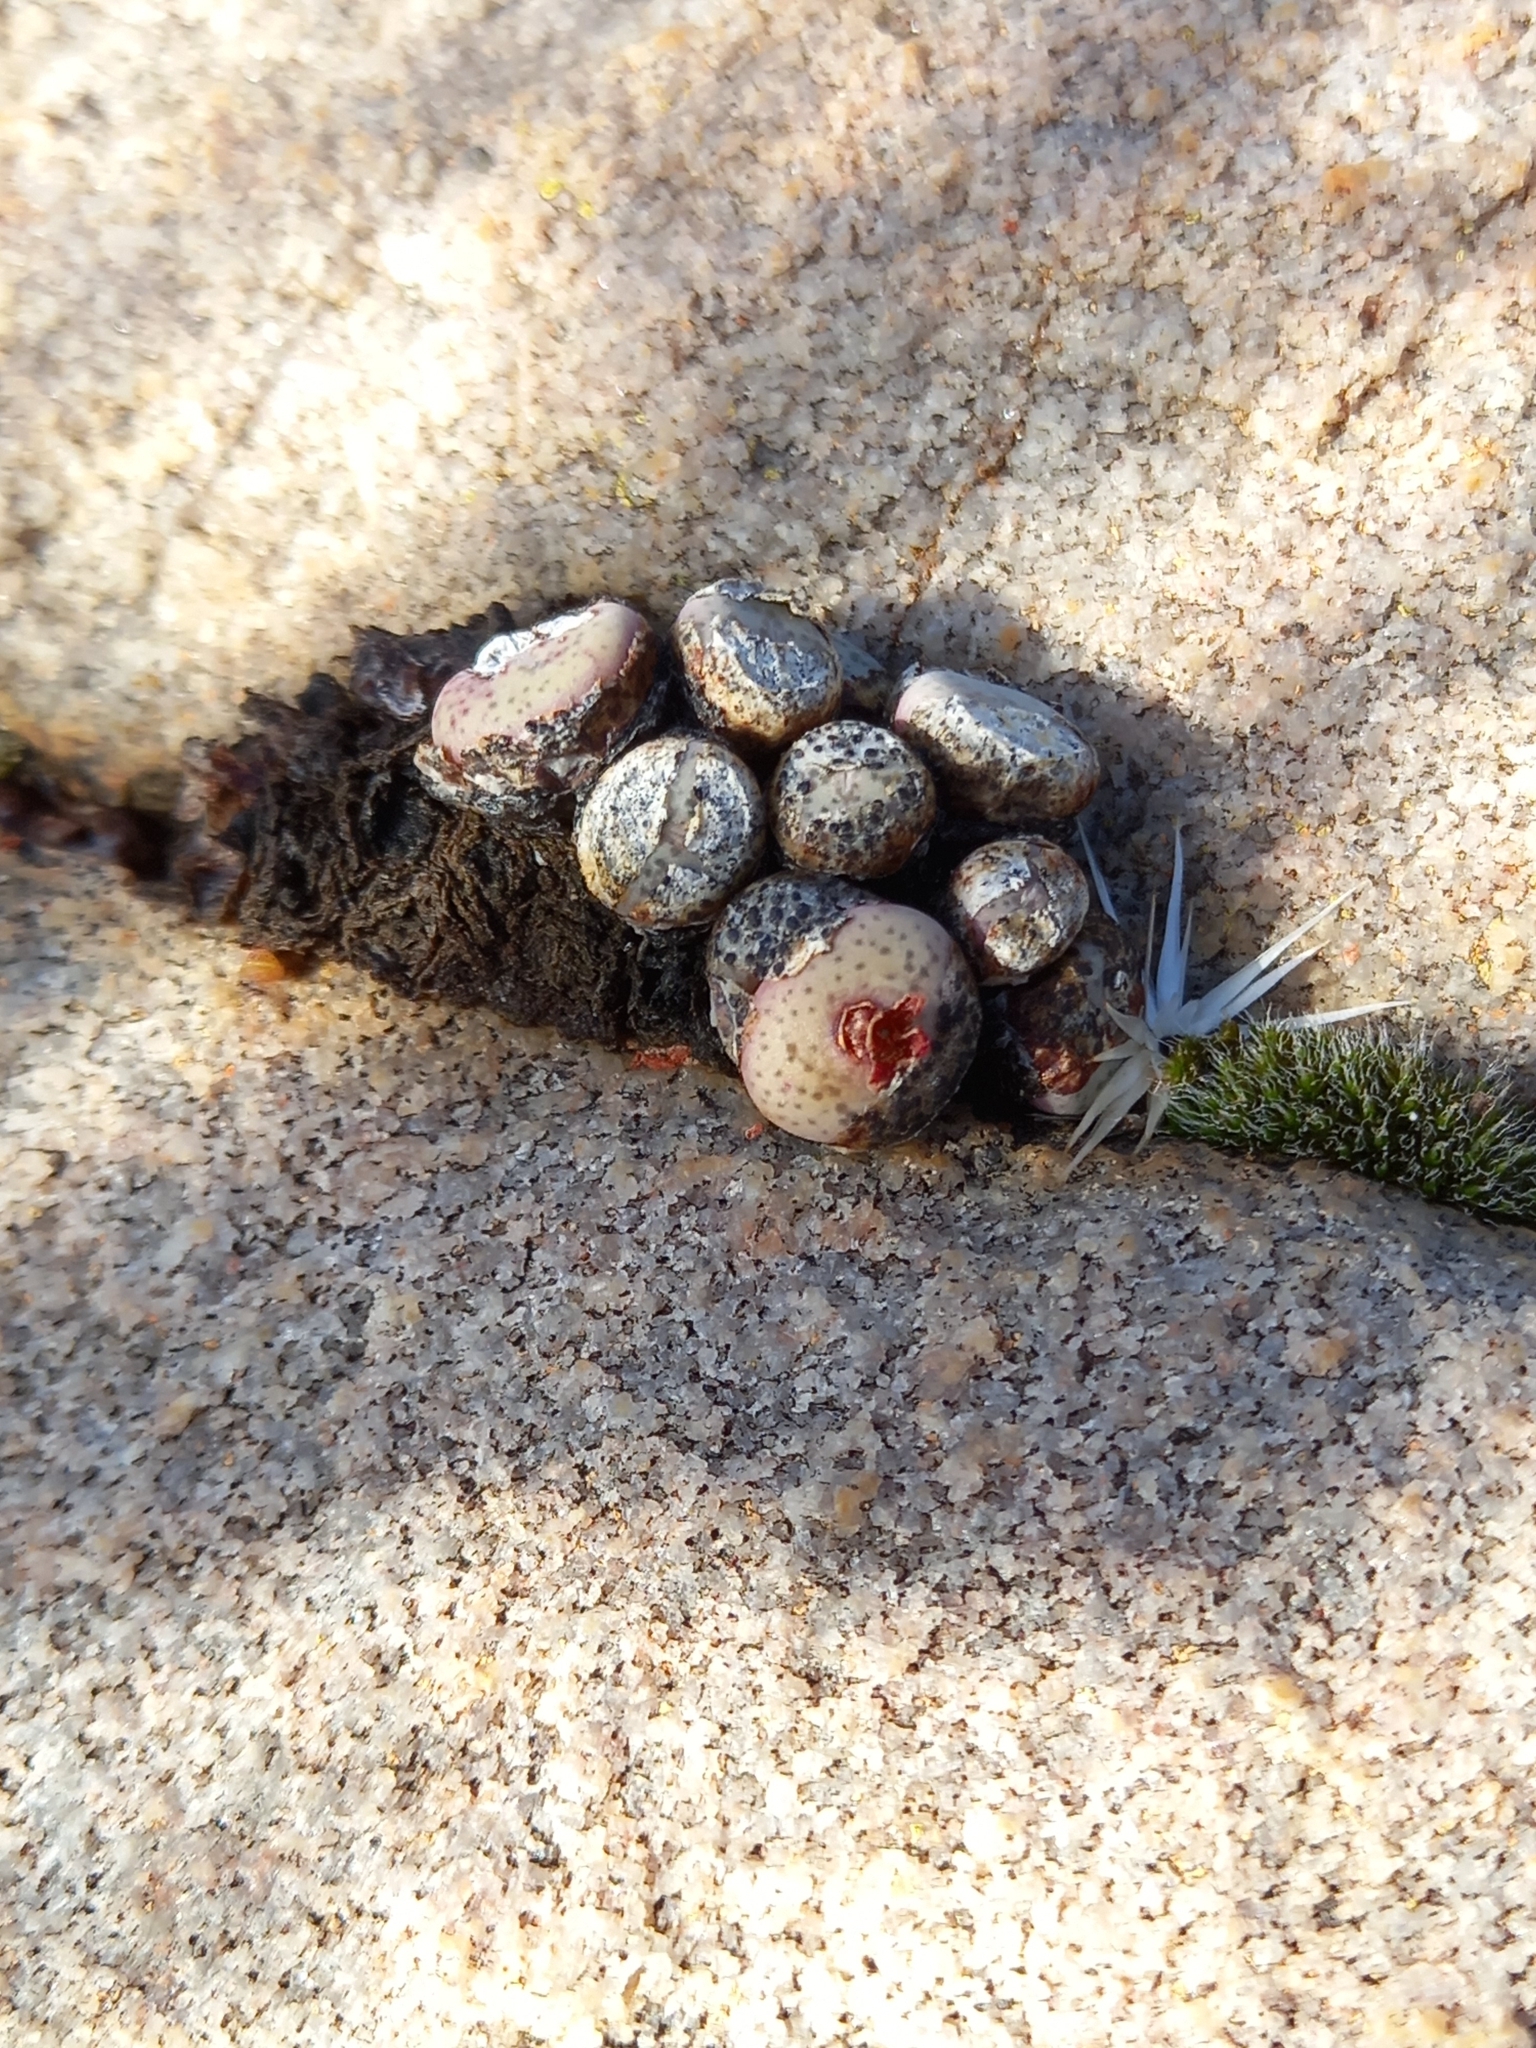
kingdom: Plantae
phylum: Tracheophyta
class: Magnoliopsida
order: Caryophyllales
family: Aizoaceae
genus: Conophytum
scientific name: Conophytum truncatum
